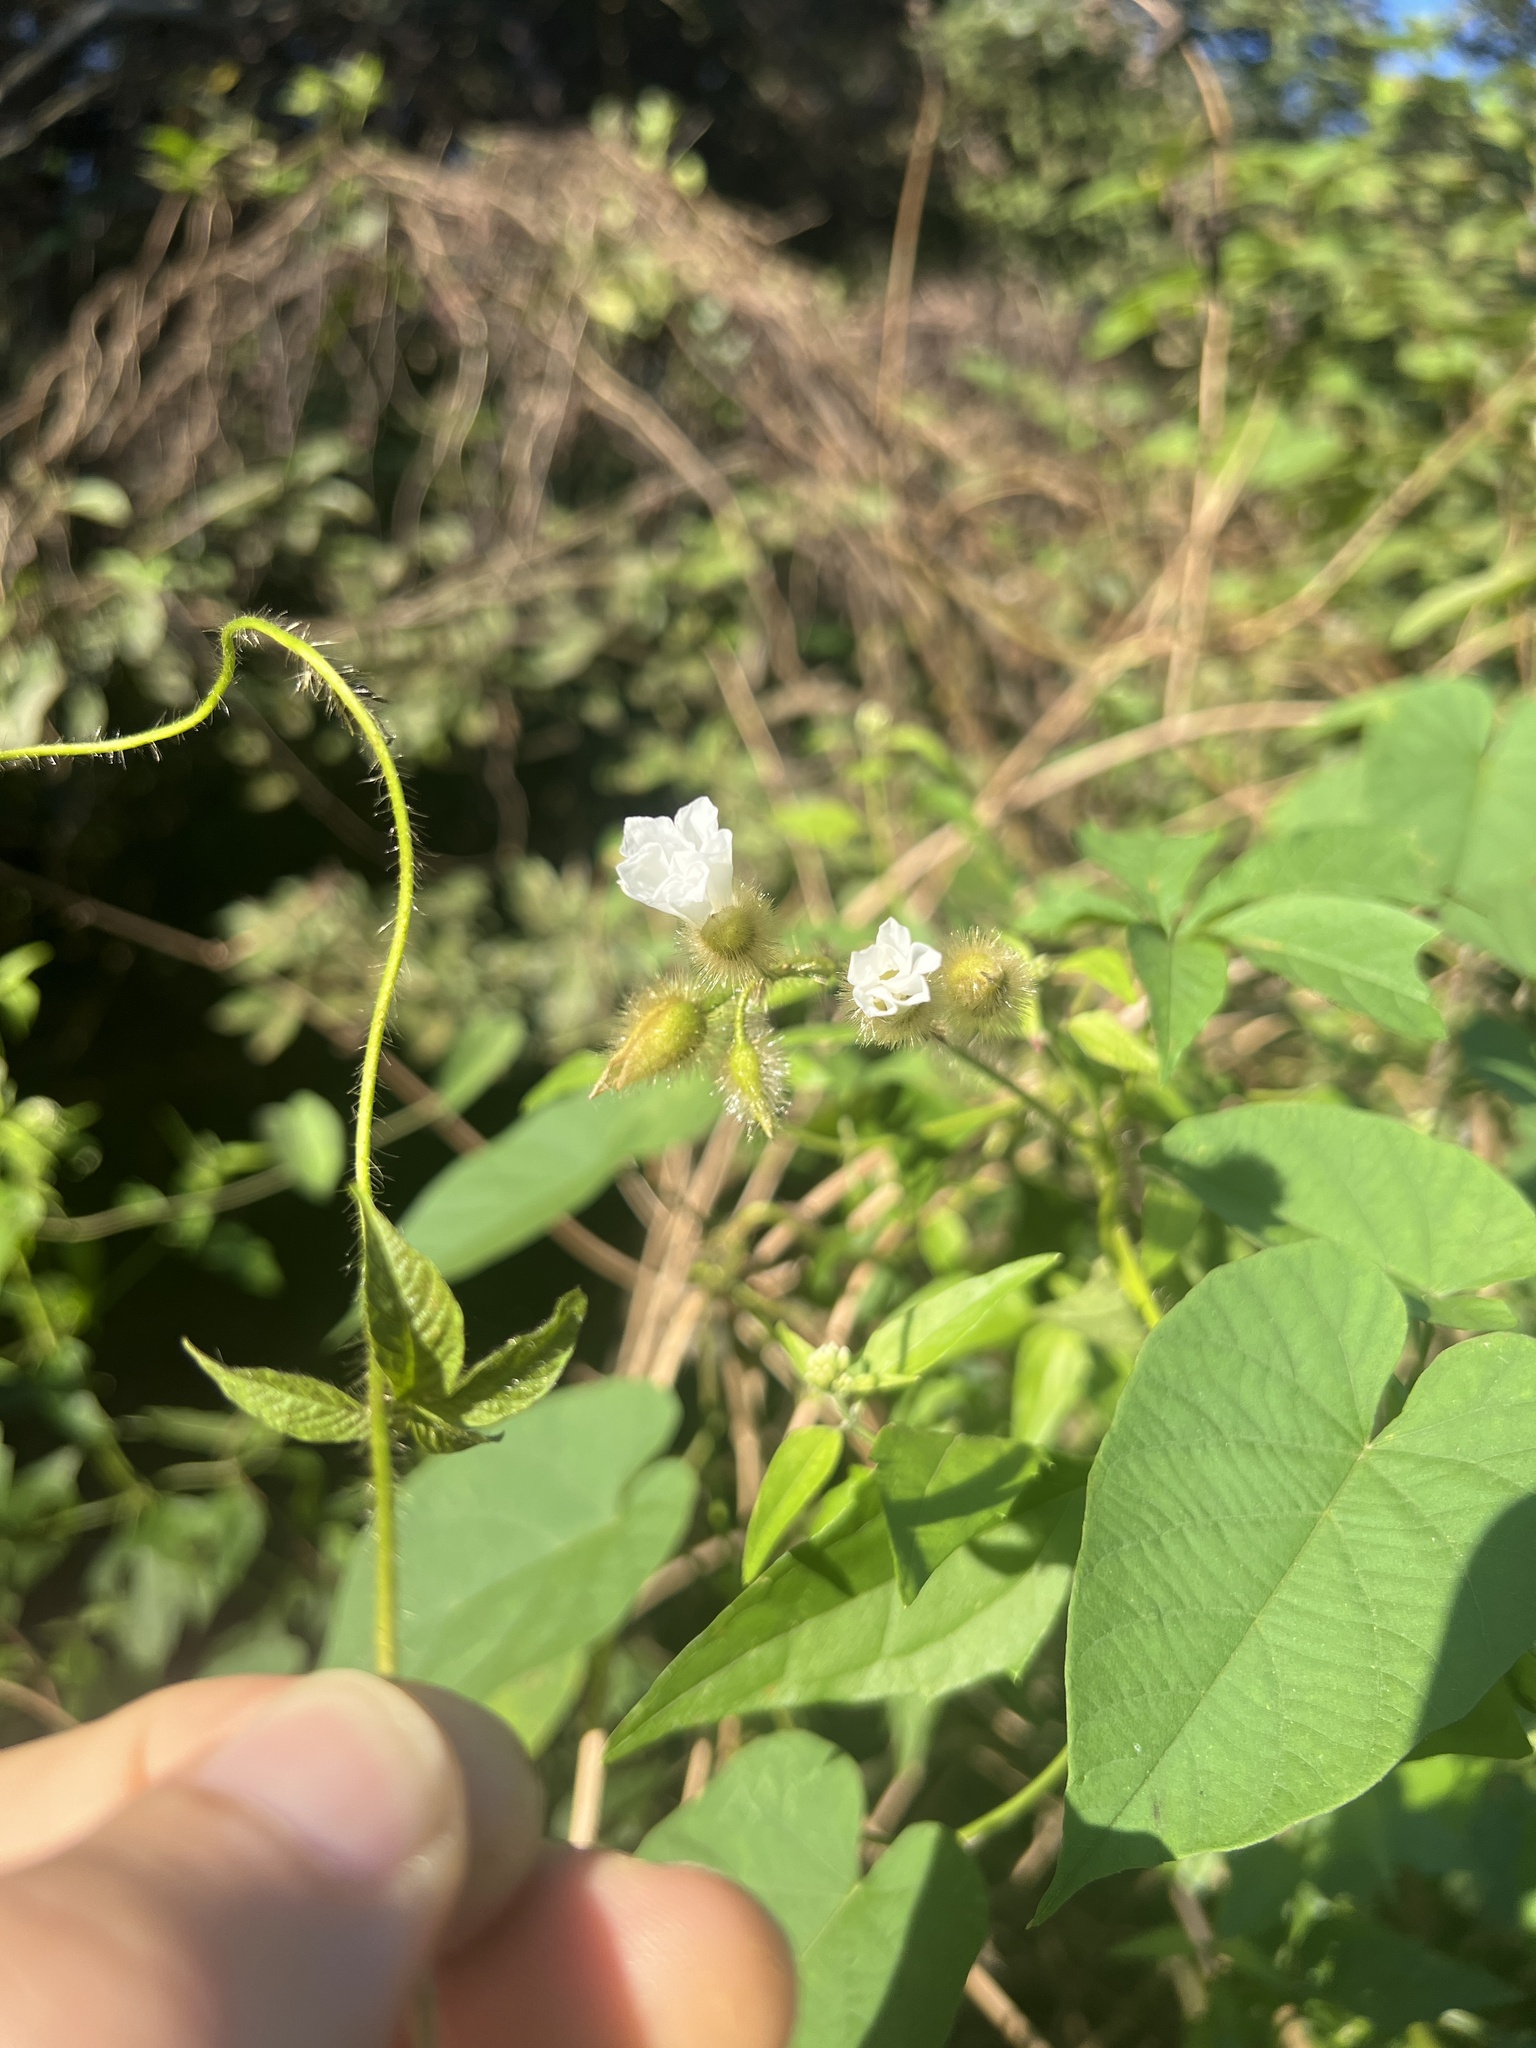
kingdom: Plantae
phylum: Tracheophyta
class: Magnoliopsida
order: Solanales
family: Convolvulaceae
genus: Distimake
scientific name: Distimake aegyptius
